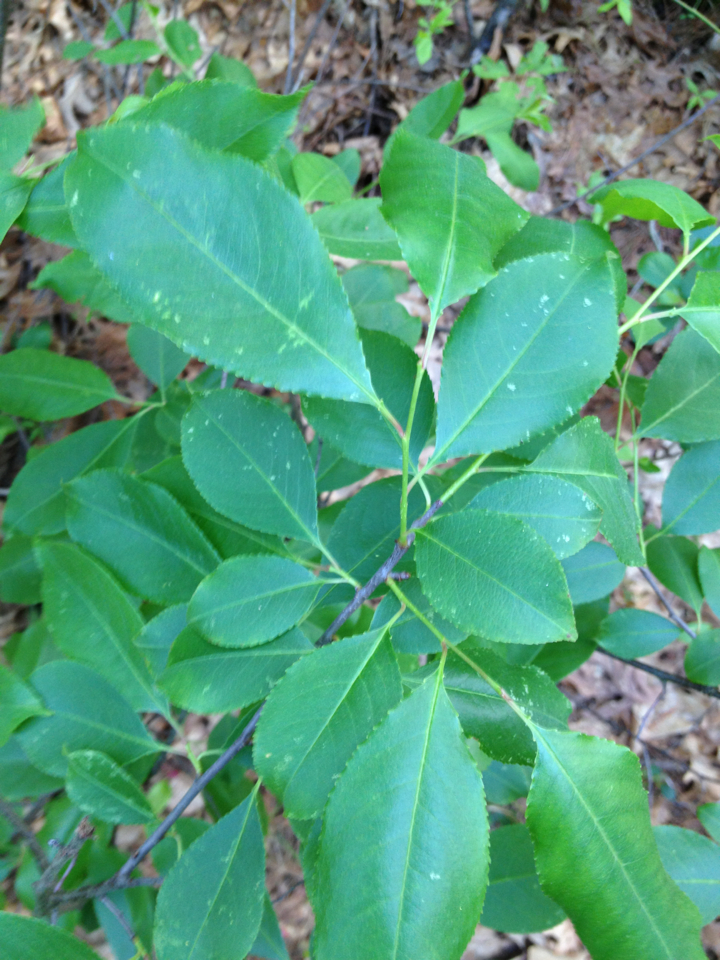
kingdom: Plantae
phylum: Tracheophyta
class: Magnoliopsida
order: Rosales
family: Rosaceae
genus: Prunus
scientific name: Prunus virginiana
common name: Chokecherry
